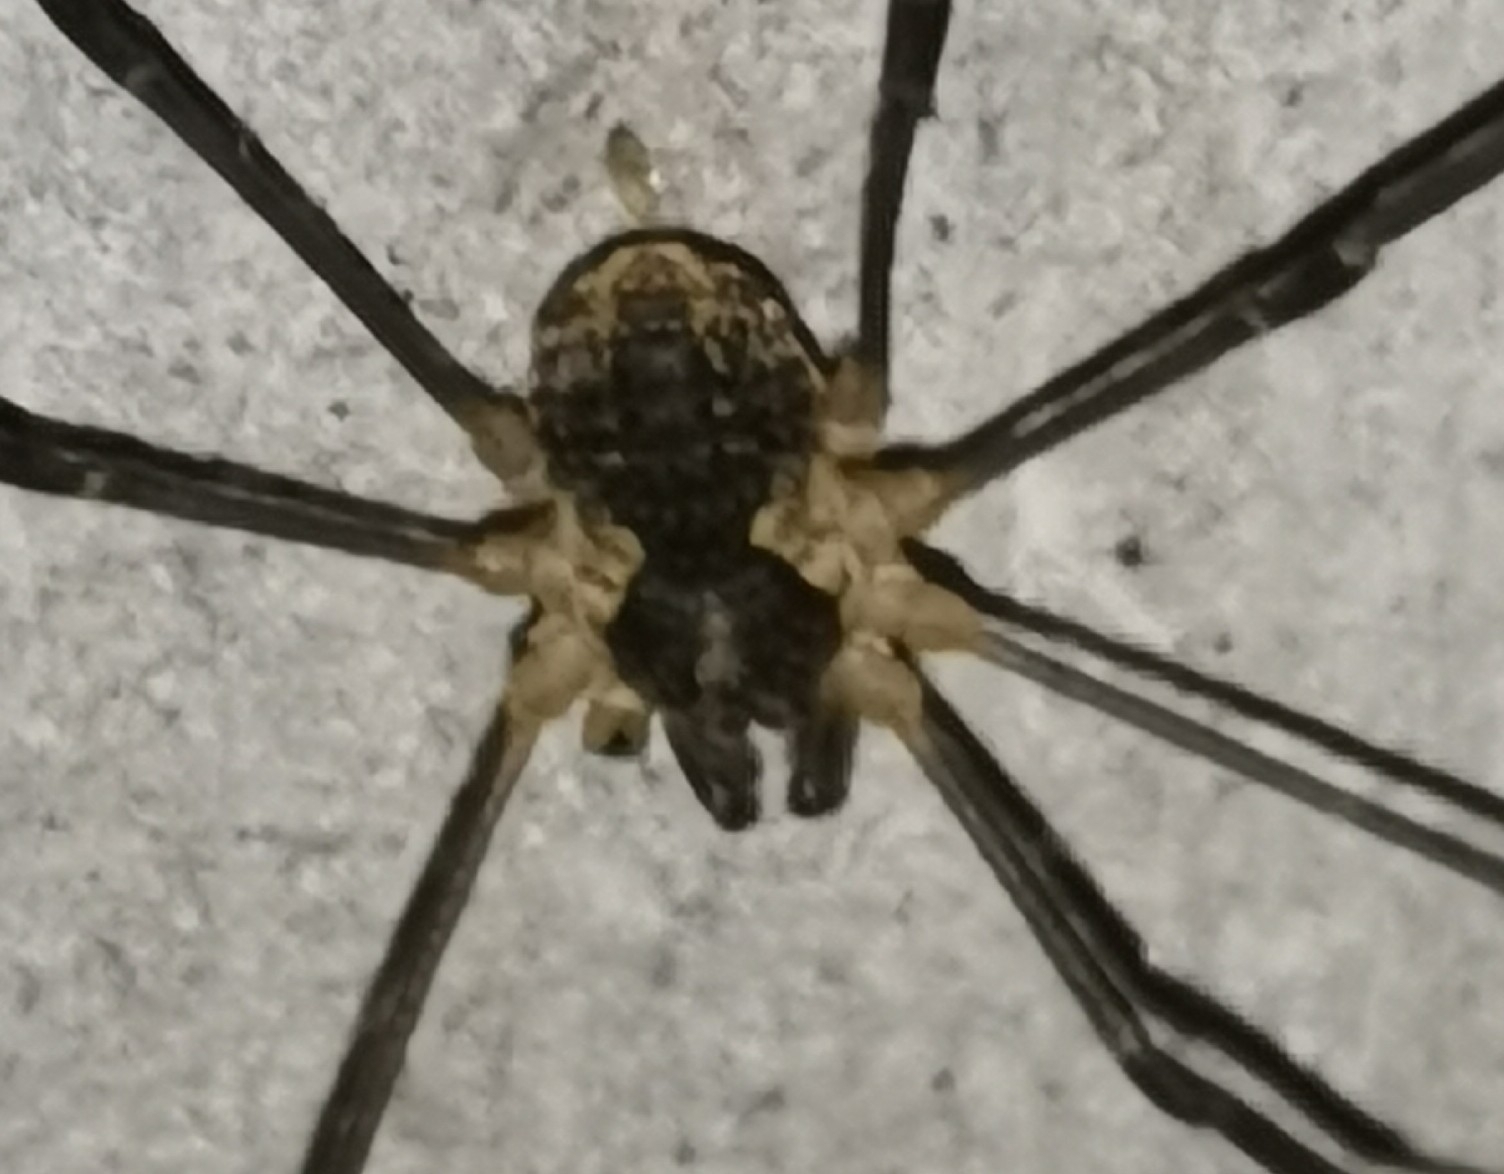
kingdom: Animalia
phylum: Arthropoda
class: Arachnida
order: Opiliones
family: Phalangiidae
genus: Mitopus
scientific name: Mitopus morio
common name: Saddleback harvestman
